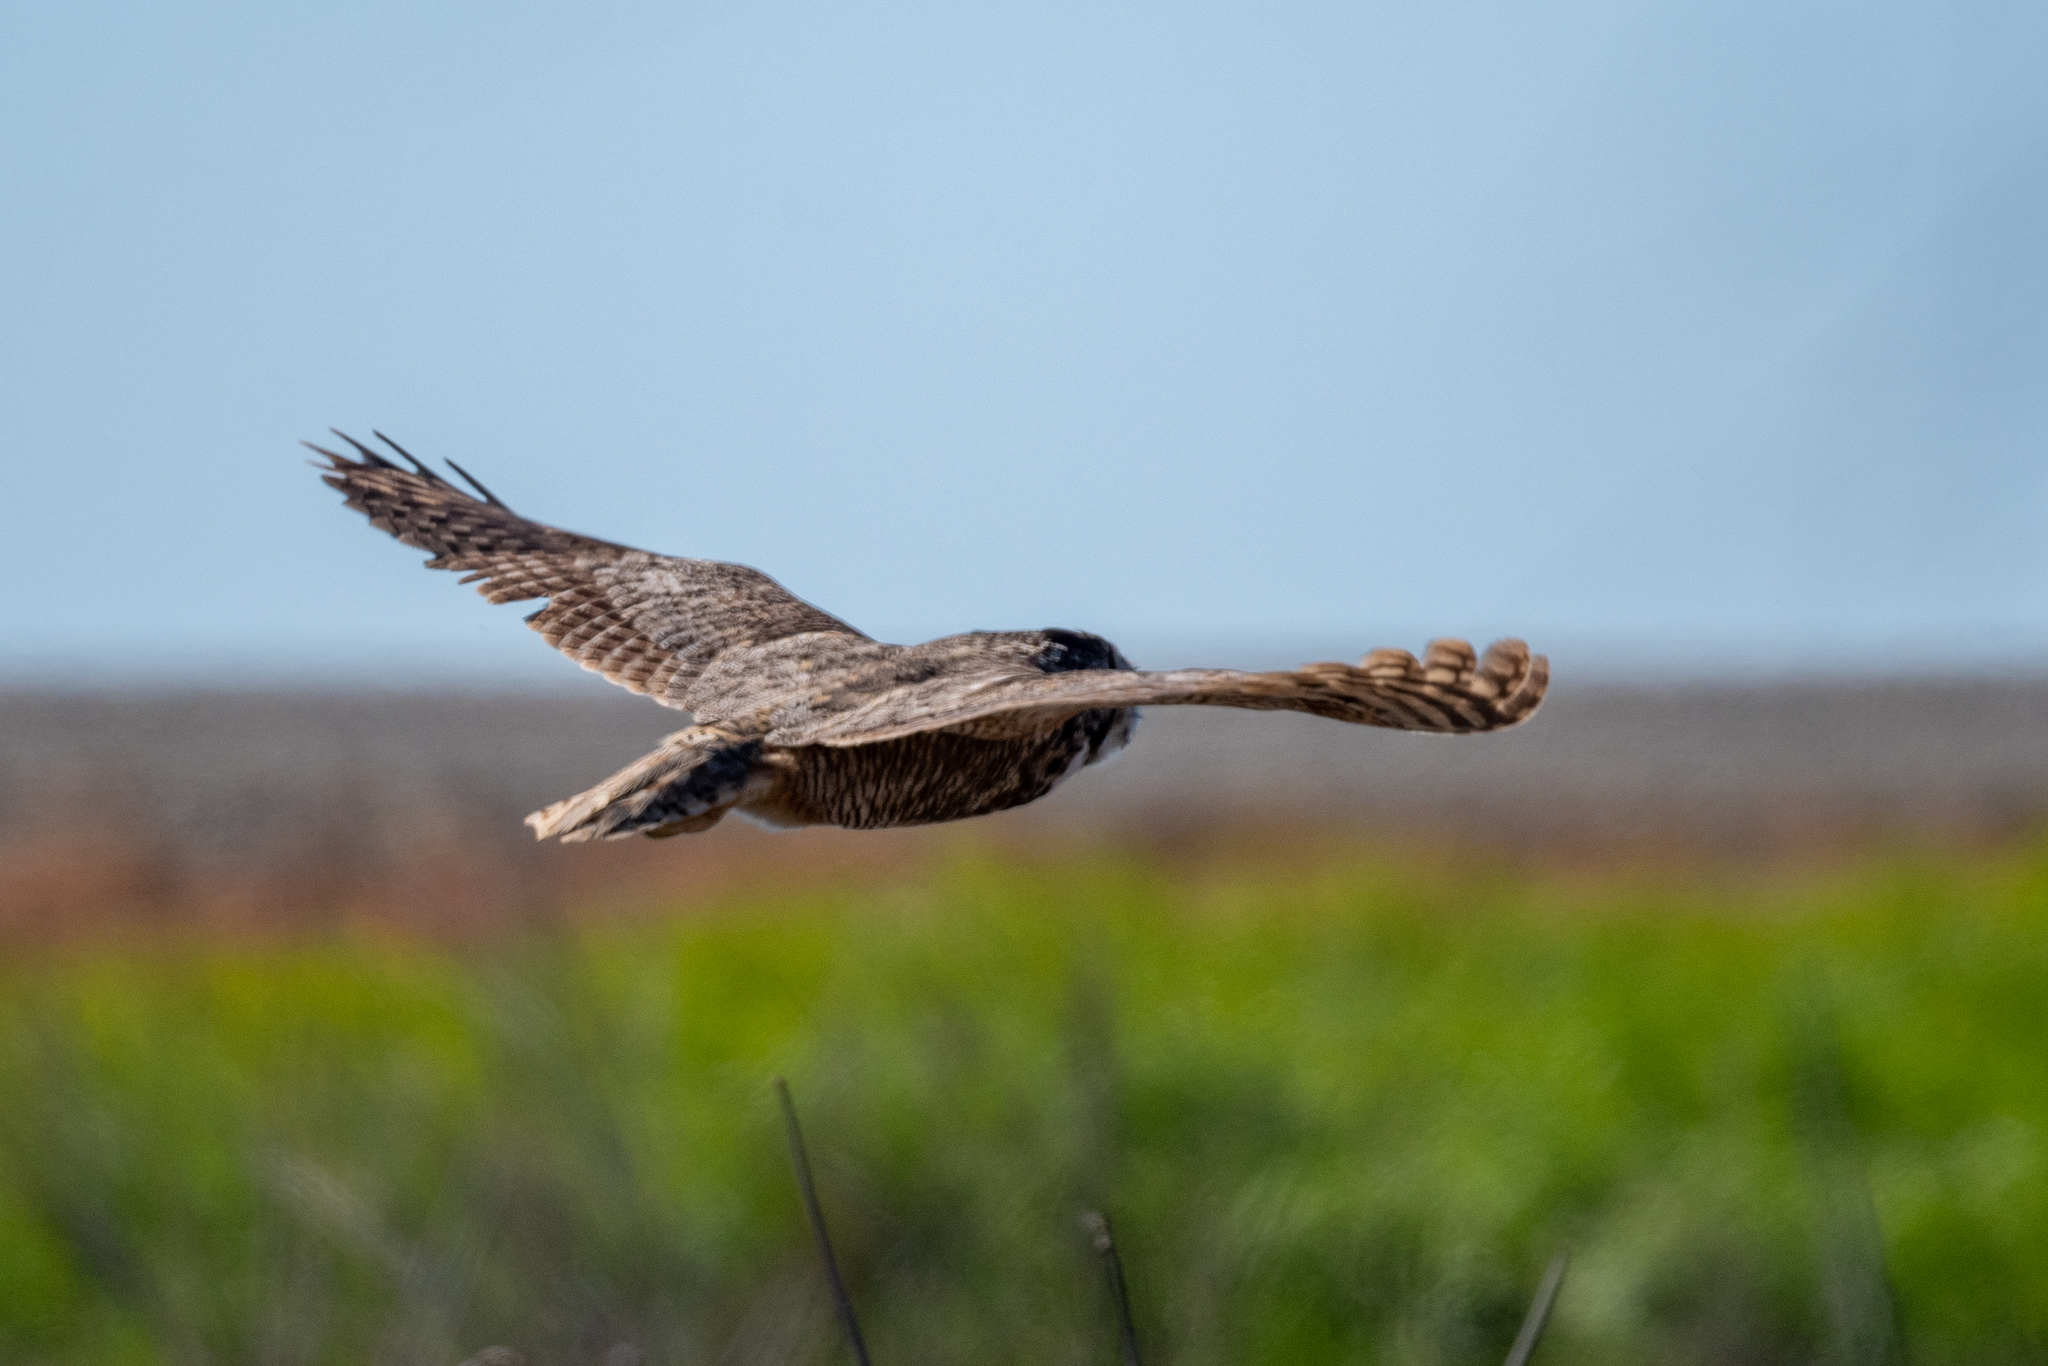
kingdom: Animalia
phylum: Chordata
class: Aves
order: Strigiformes
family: Strigidae
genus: Bubo
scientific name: Bubo virginianus
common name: Great horned owl
